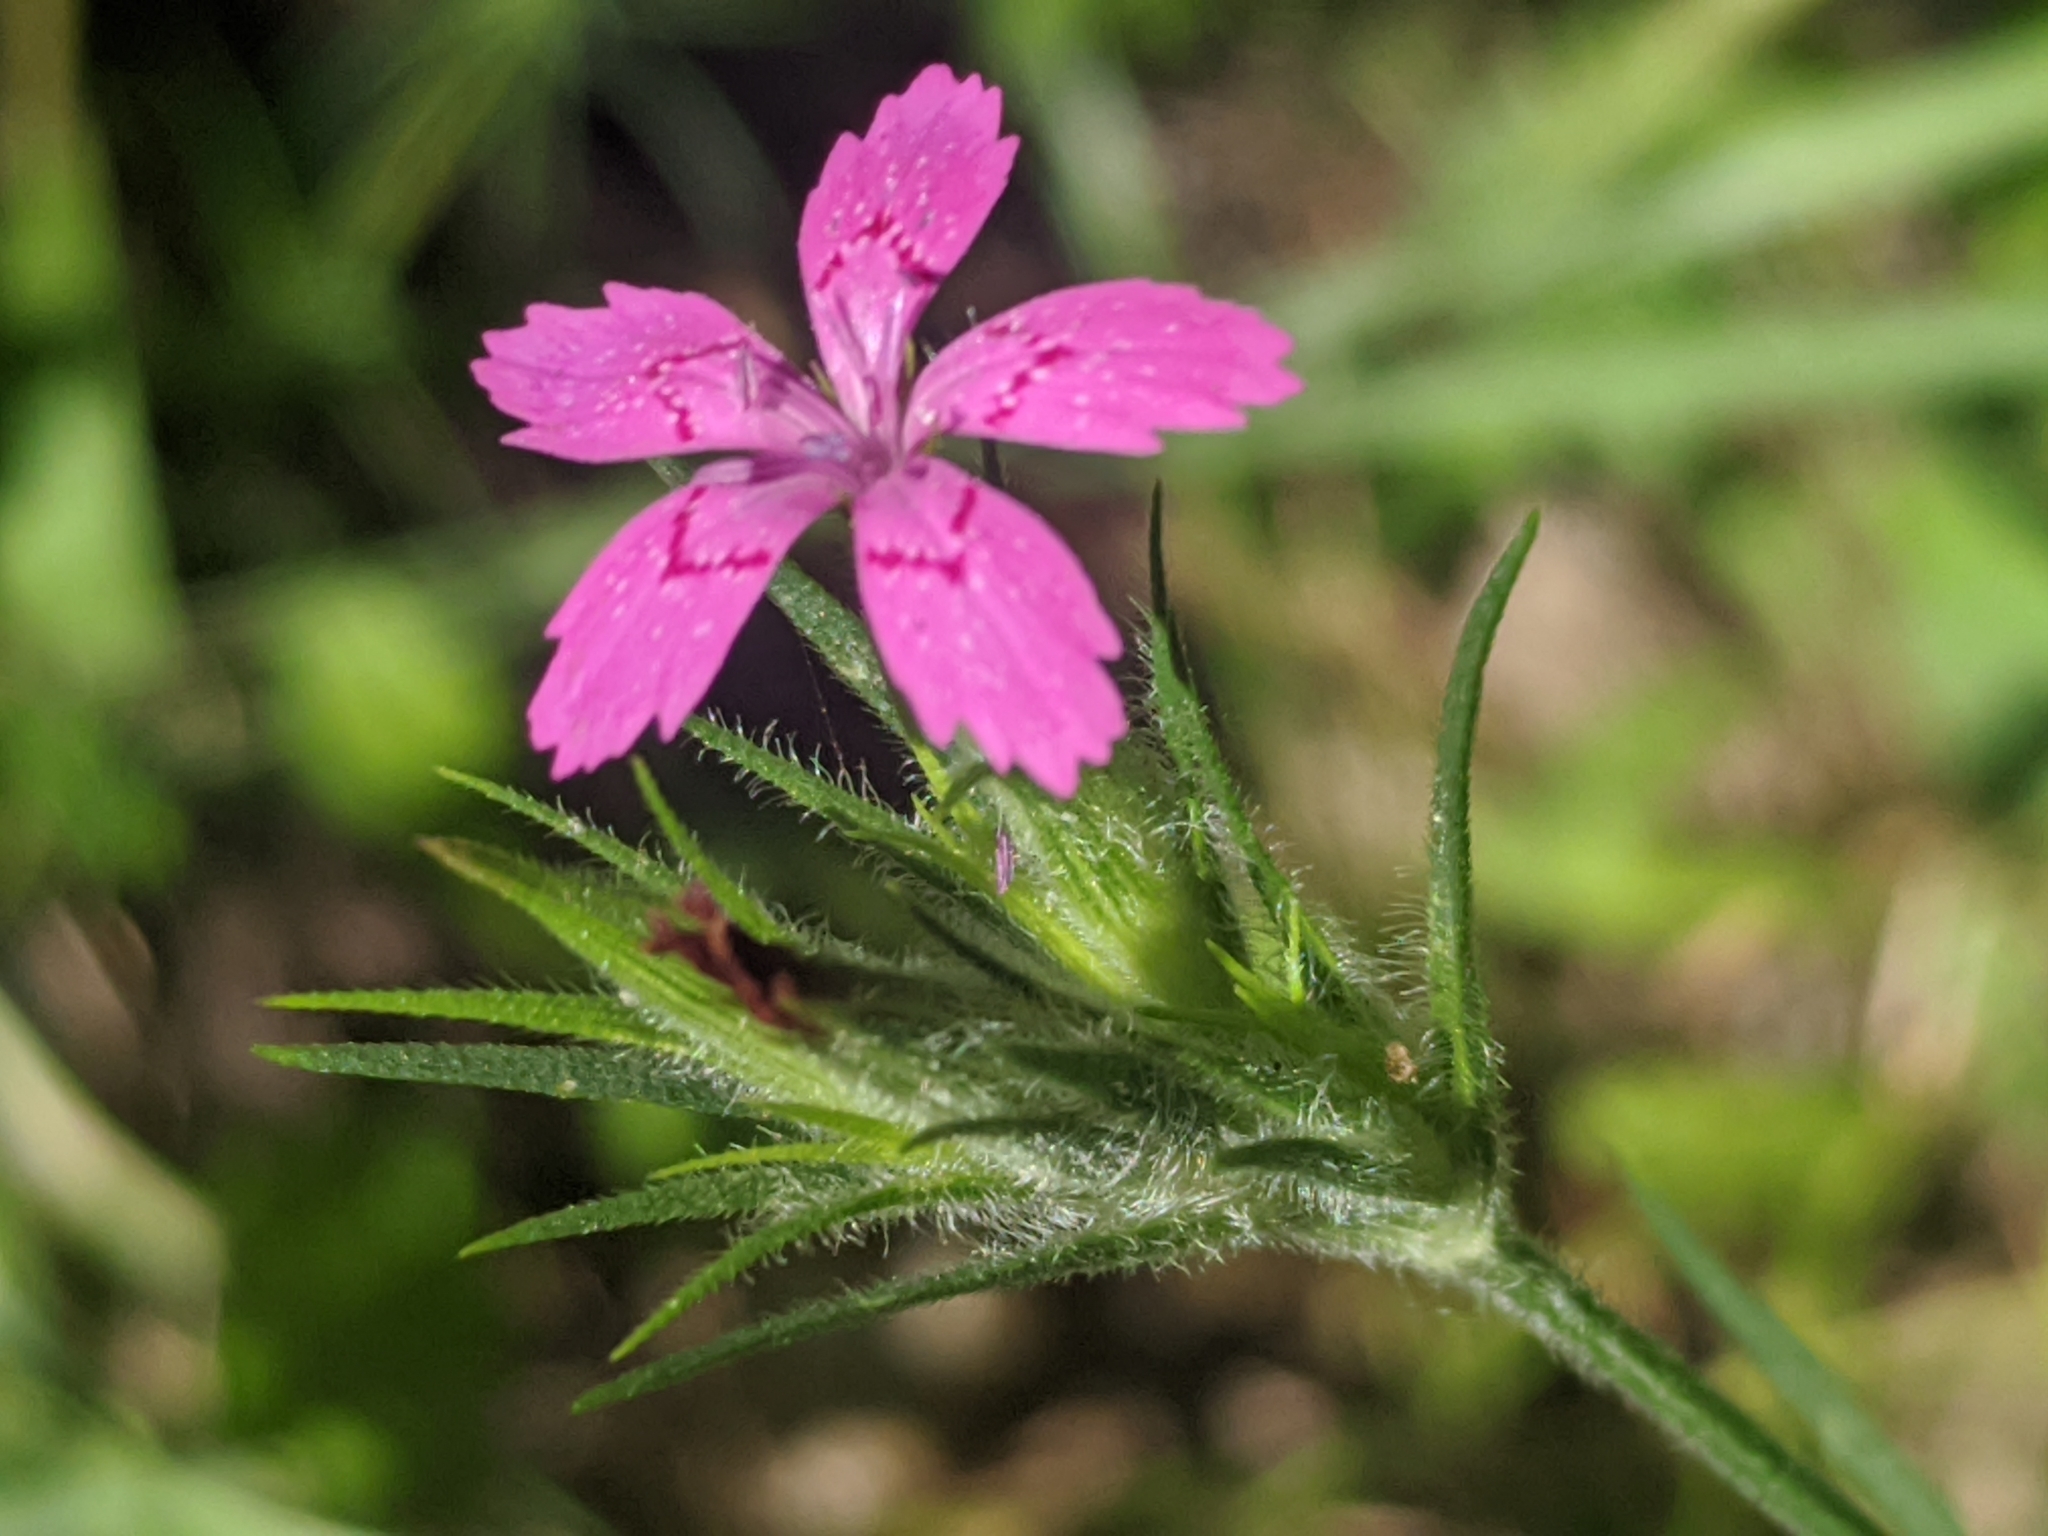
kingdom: Plantae
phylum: Tracheophyta
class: Magnoliopsida
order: Caryophyllales
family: Caryophyllaceae
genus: Dianthus
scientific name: Dianthus armeria
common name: Deptford pink
